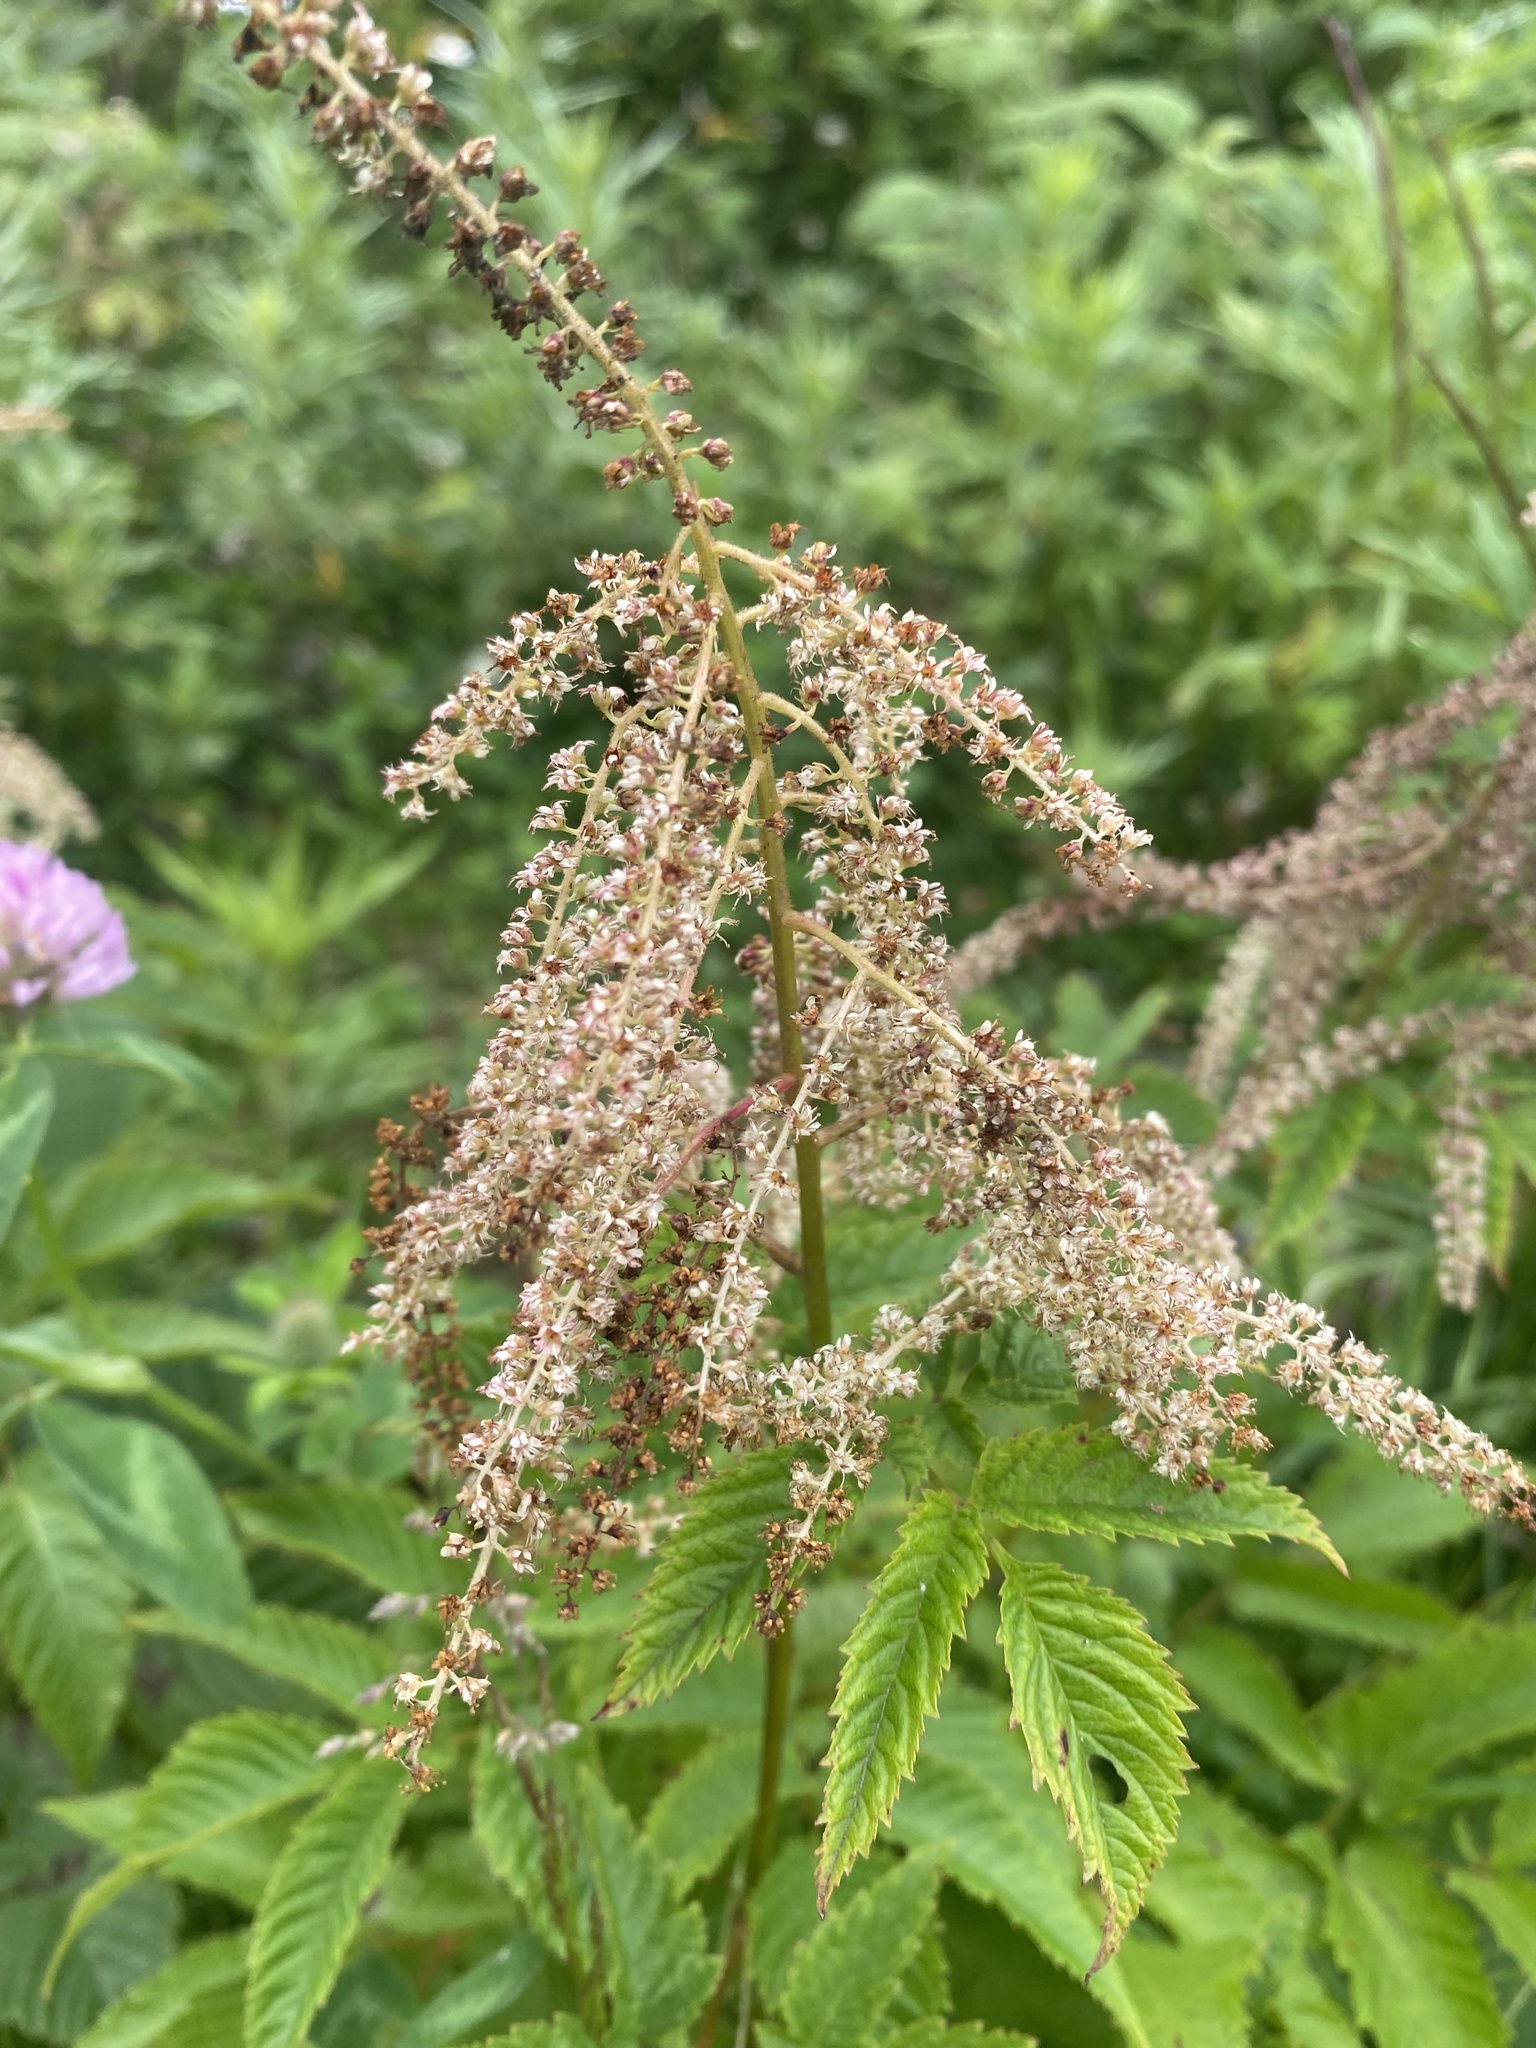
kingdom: Plantae
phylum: Tracheophyta
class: Magnoliopsida
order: Rosales
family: Rosaceae
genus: Aruncus
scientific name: Aruncus dioicus
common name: Buck's-beard
